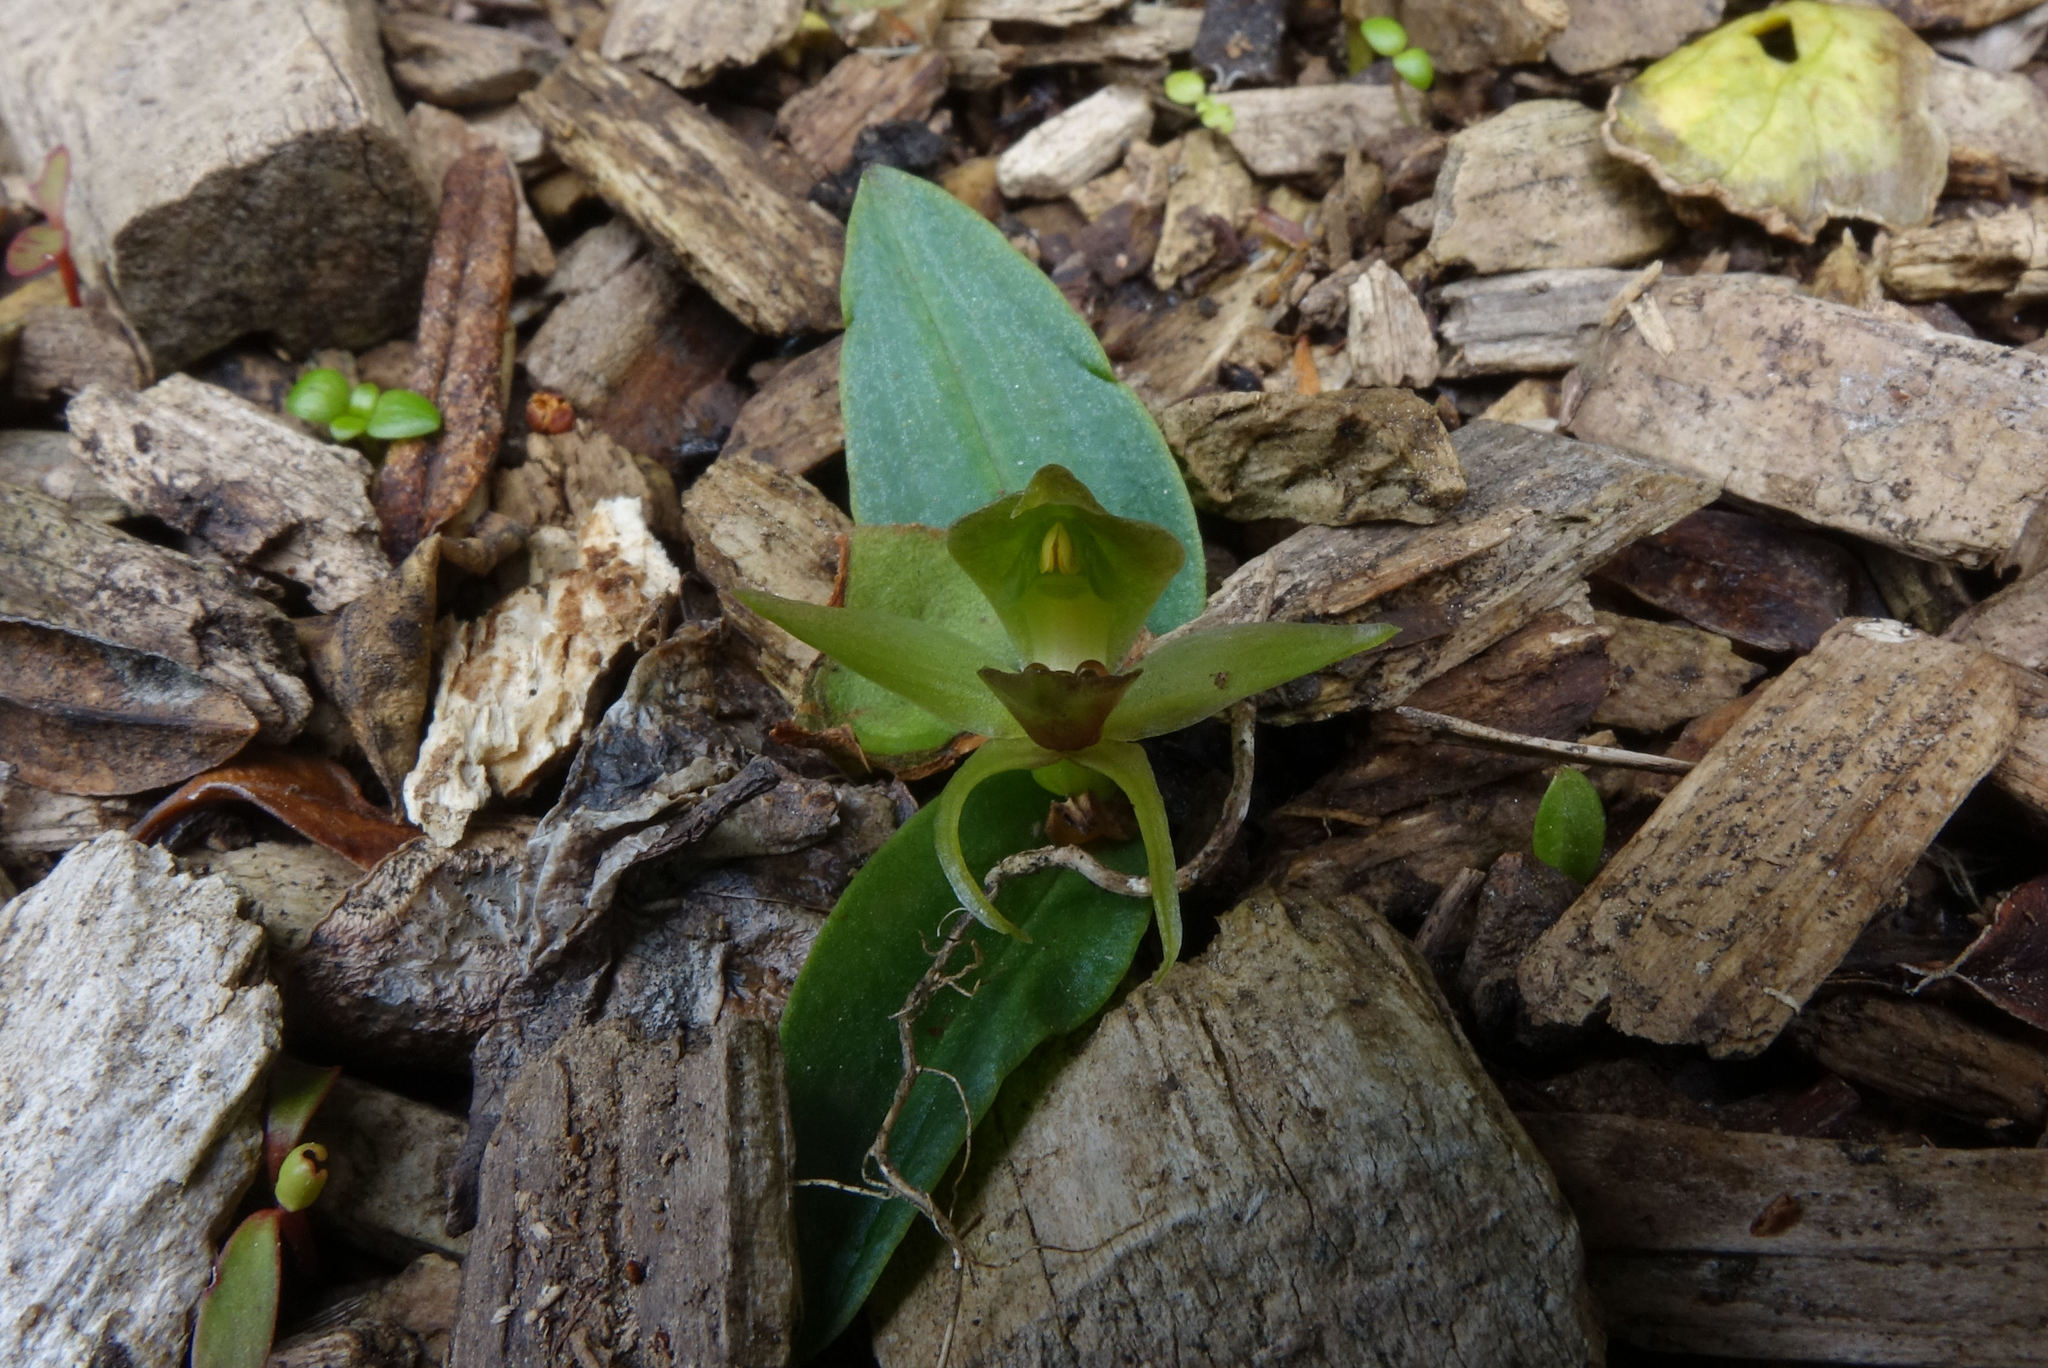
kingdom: Plantae
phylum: Tracheophyta
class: Liliopsida
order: Asparagales
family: Orchidaceae
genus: Chiloglottis
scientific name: Chiloglottis cornuta
